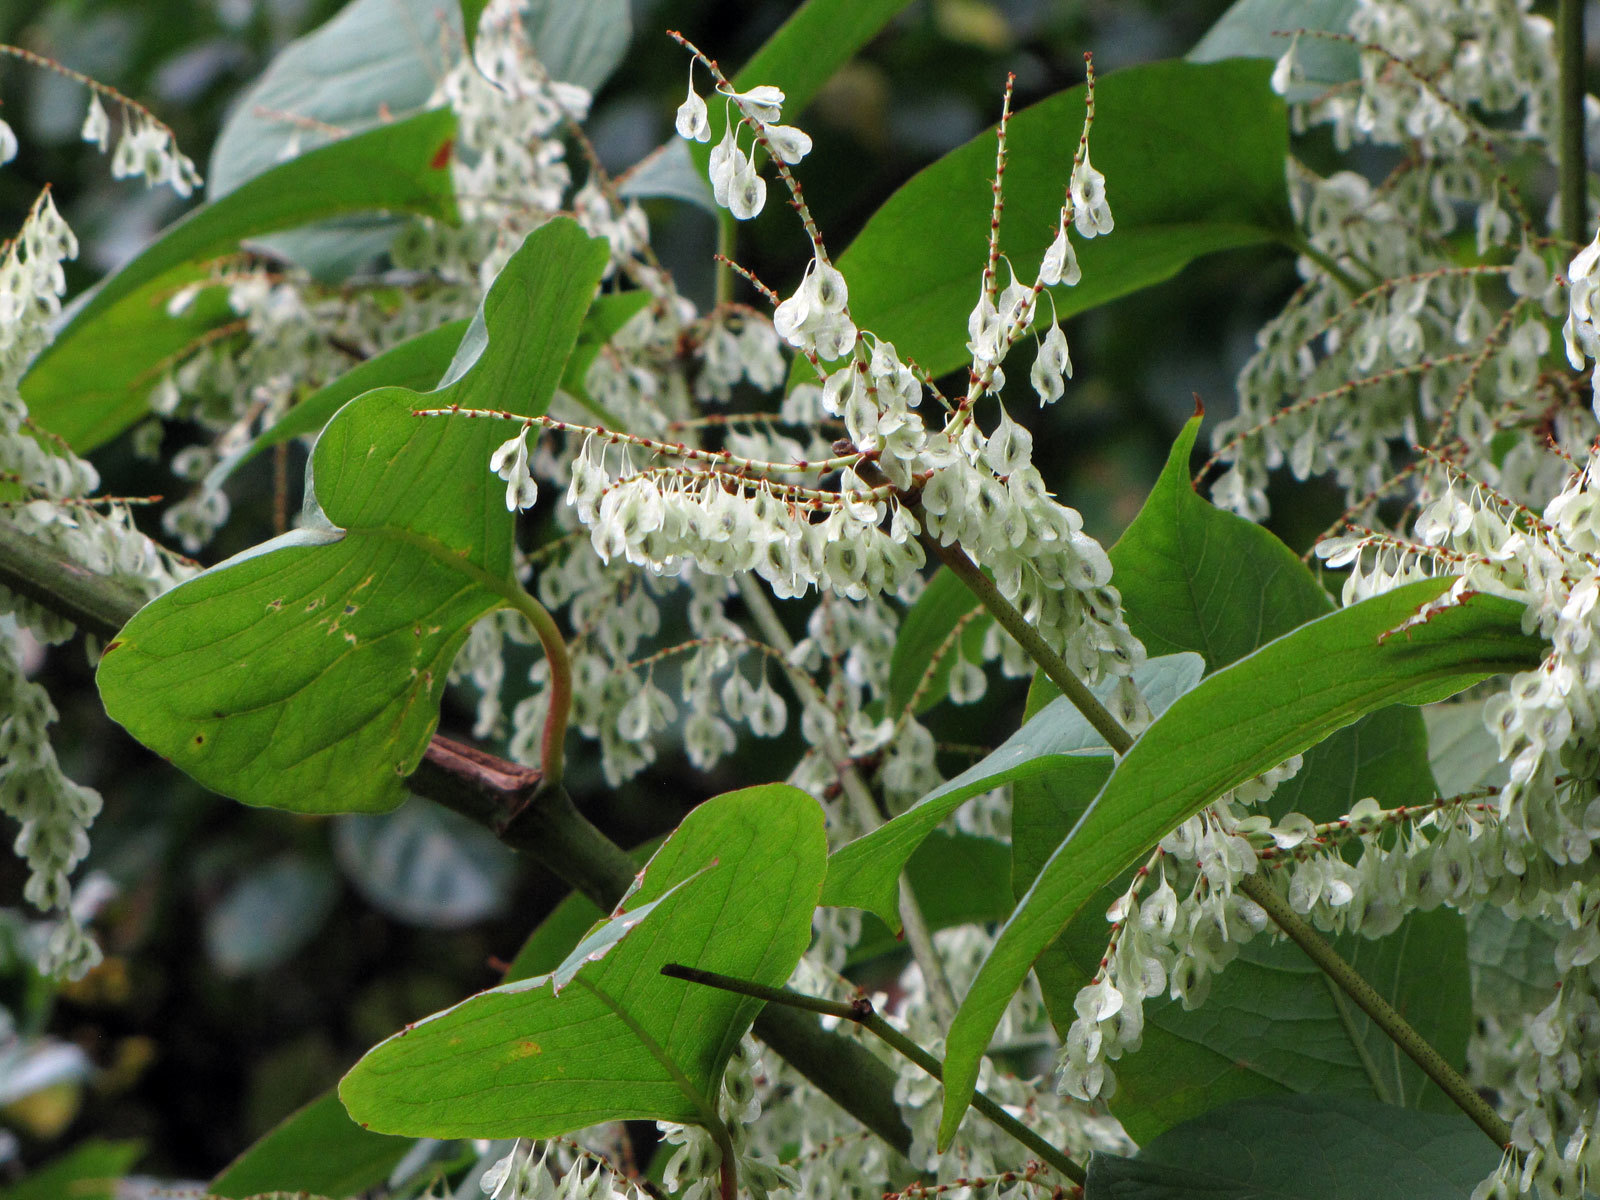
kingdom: Plantae
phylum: Tracheophyta
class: Magnoliopsida
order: Caryophyllales
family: Polygonaceae
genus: Reynoutria
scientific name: Reynoutria japonica
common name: Japanese knotweed
